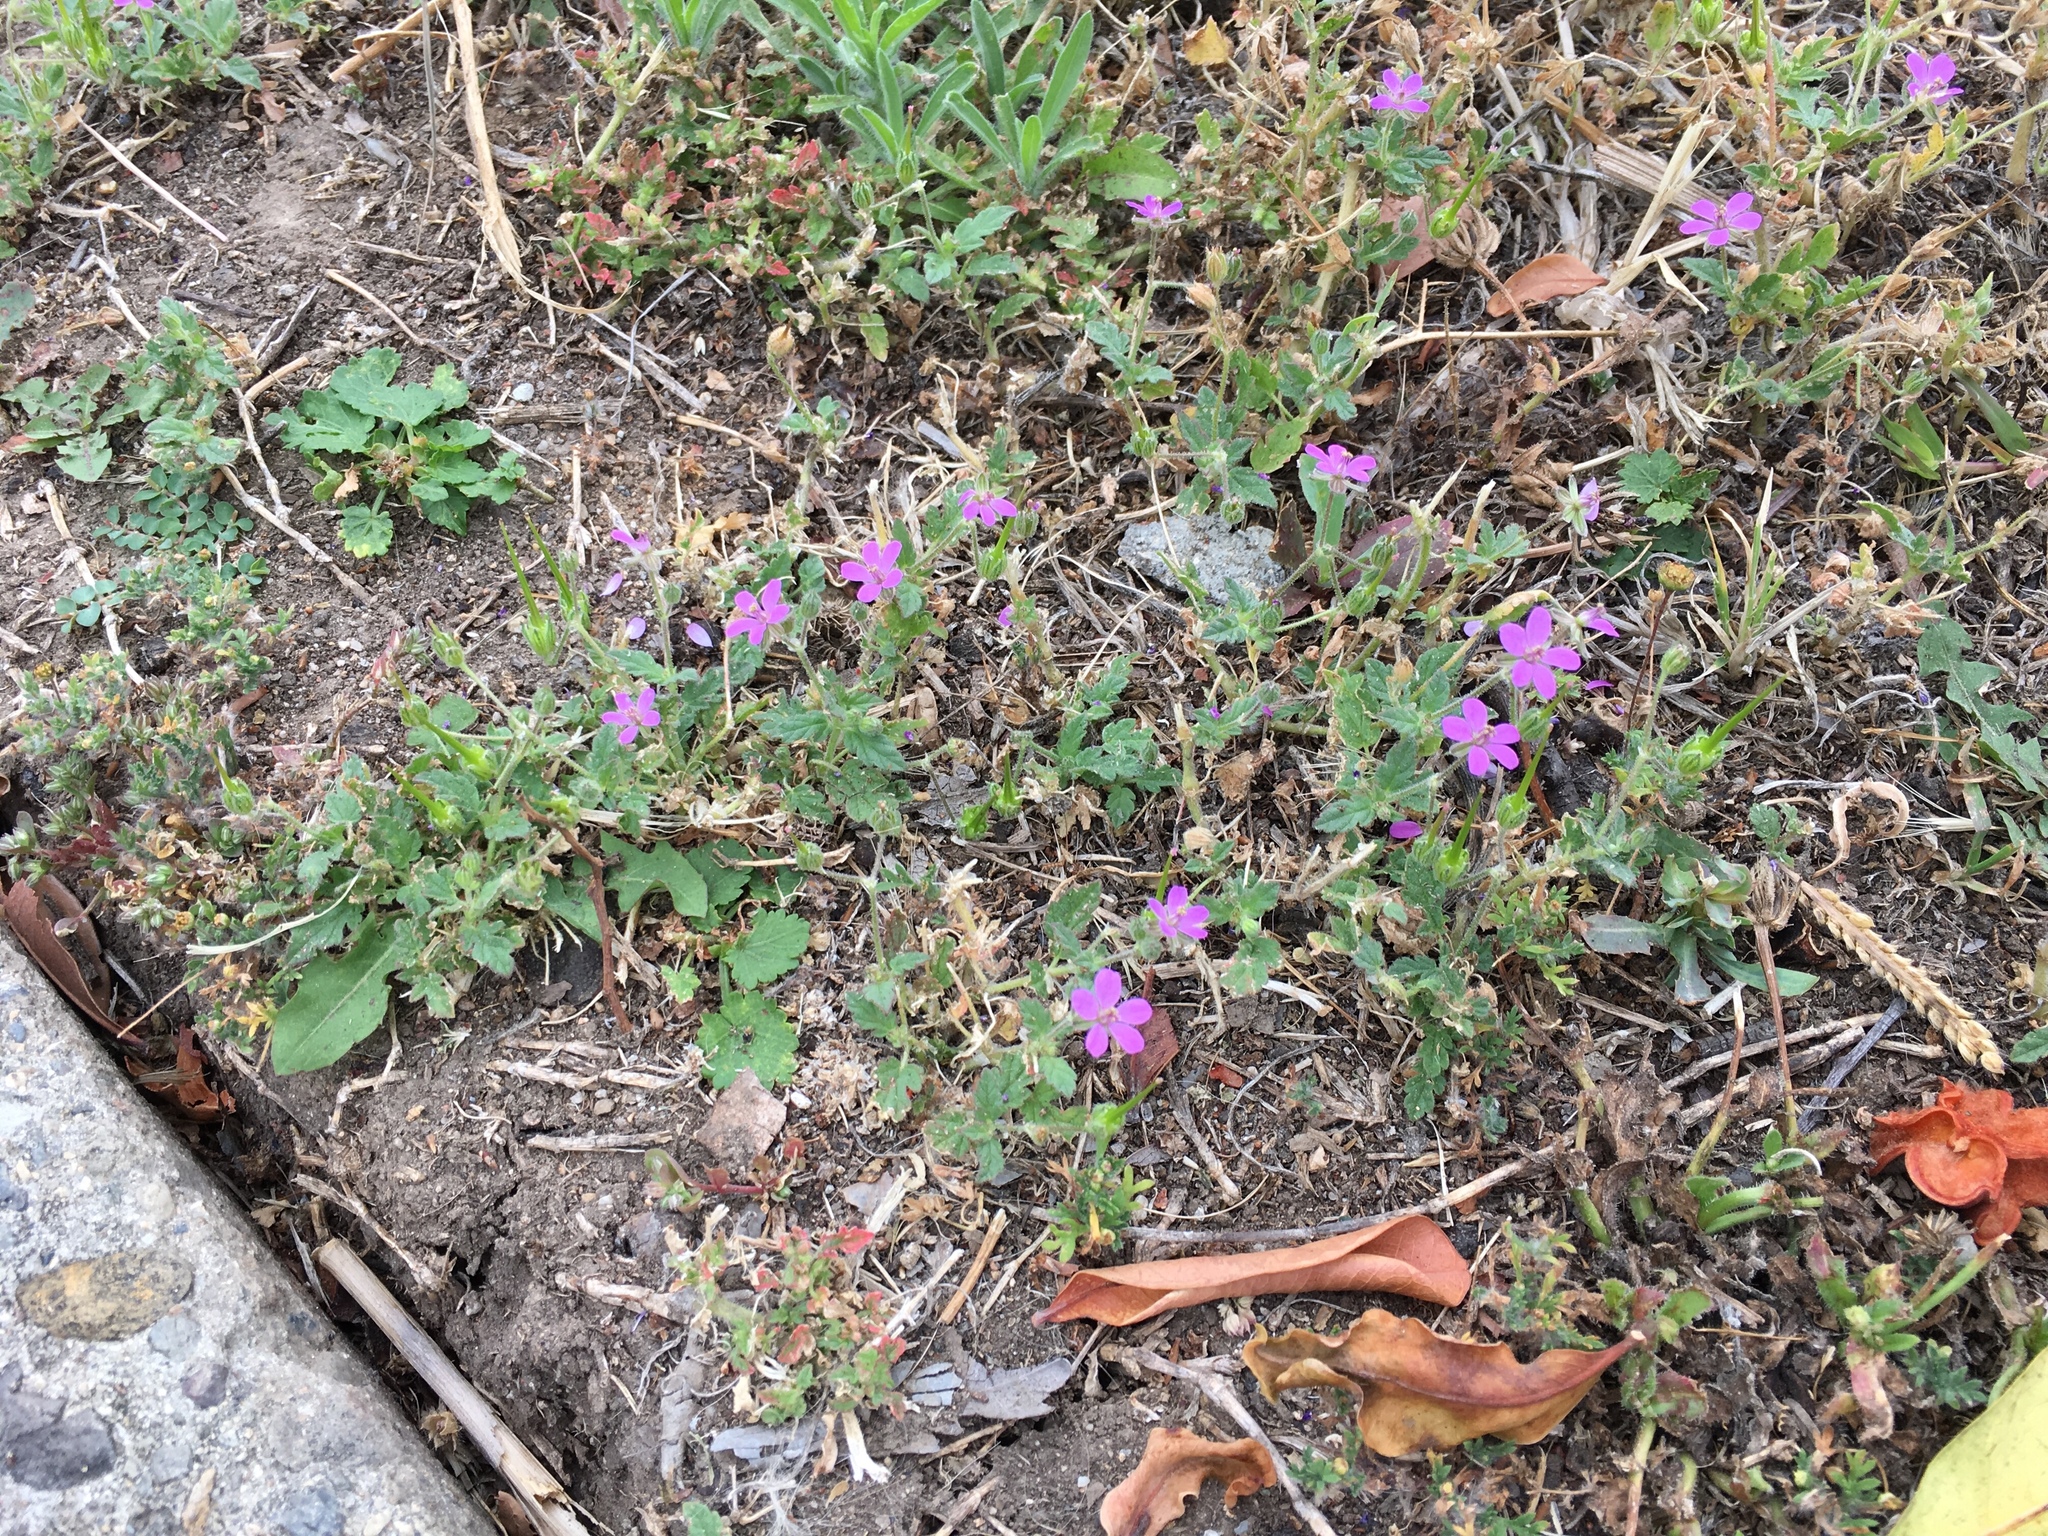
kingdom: Plantae
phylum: Tracheophyta
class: Magnoliopsida
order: Geraniales
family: Geraniaceae
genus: Erodium
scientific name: Erodium cicutarium
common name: Common stork's-bill
